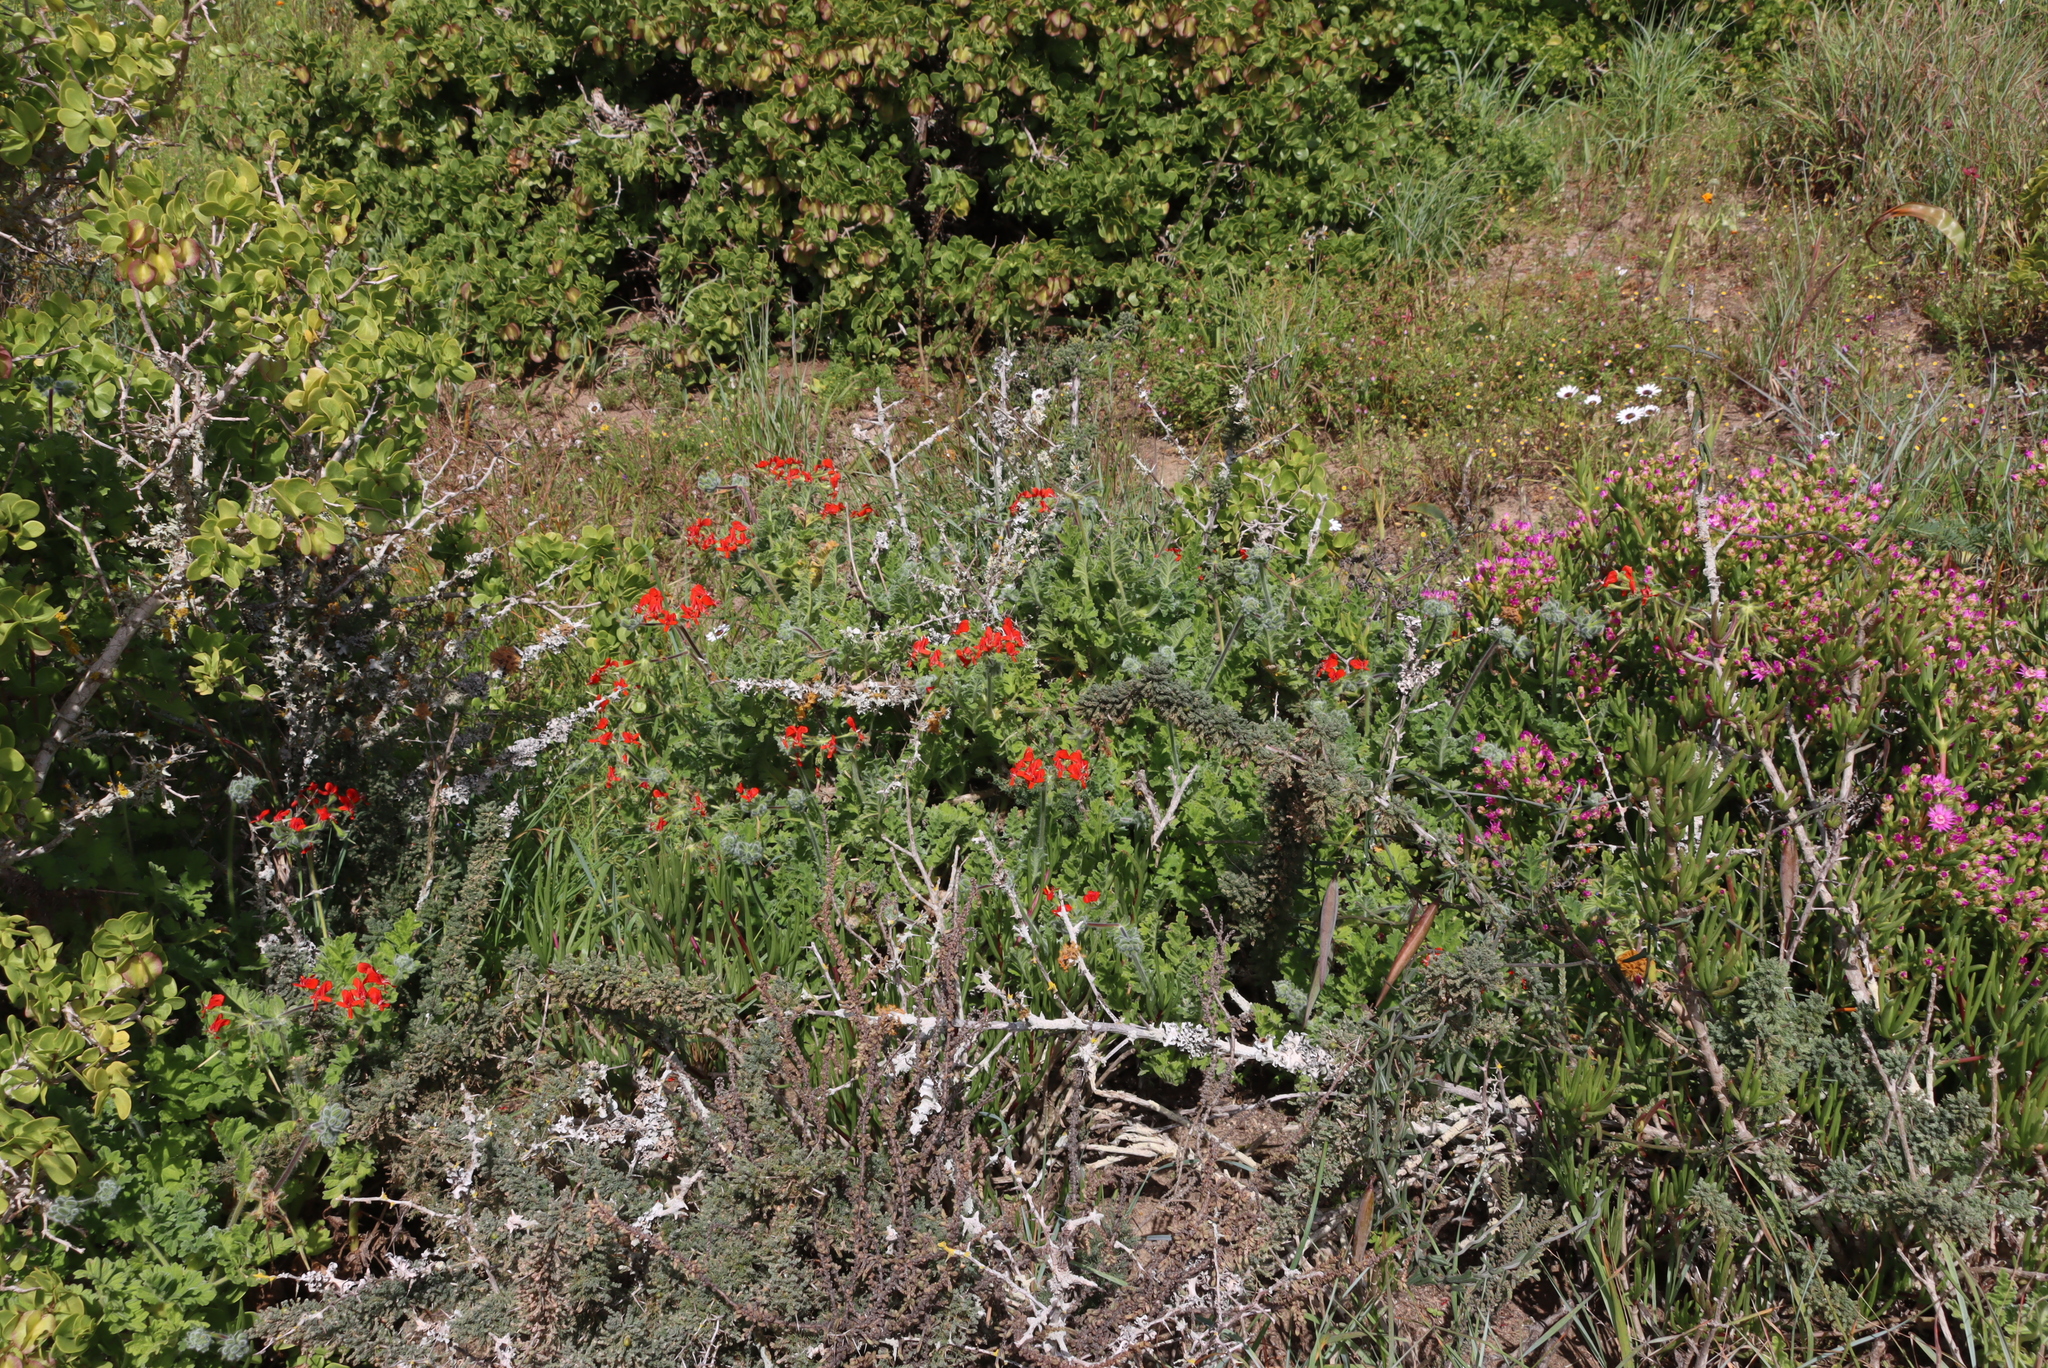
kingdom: Plantae
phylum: Tracheophyta
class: Magnoliopsida
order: Geraniales
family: Geraniaceae
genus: Pelargonium
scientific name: Pelargonium fulgidum
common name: Celandine-leaf pelargonium
